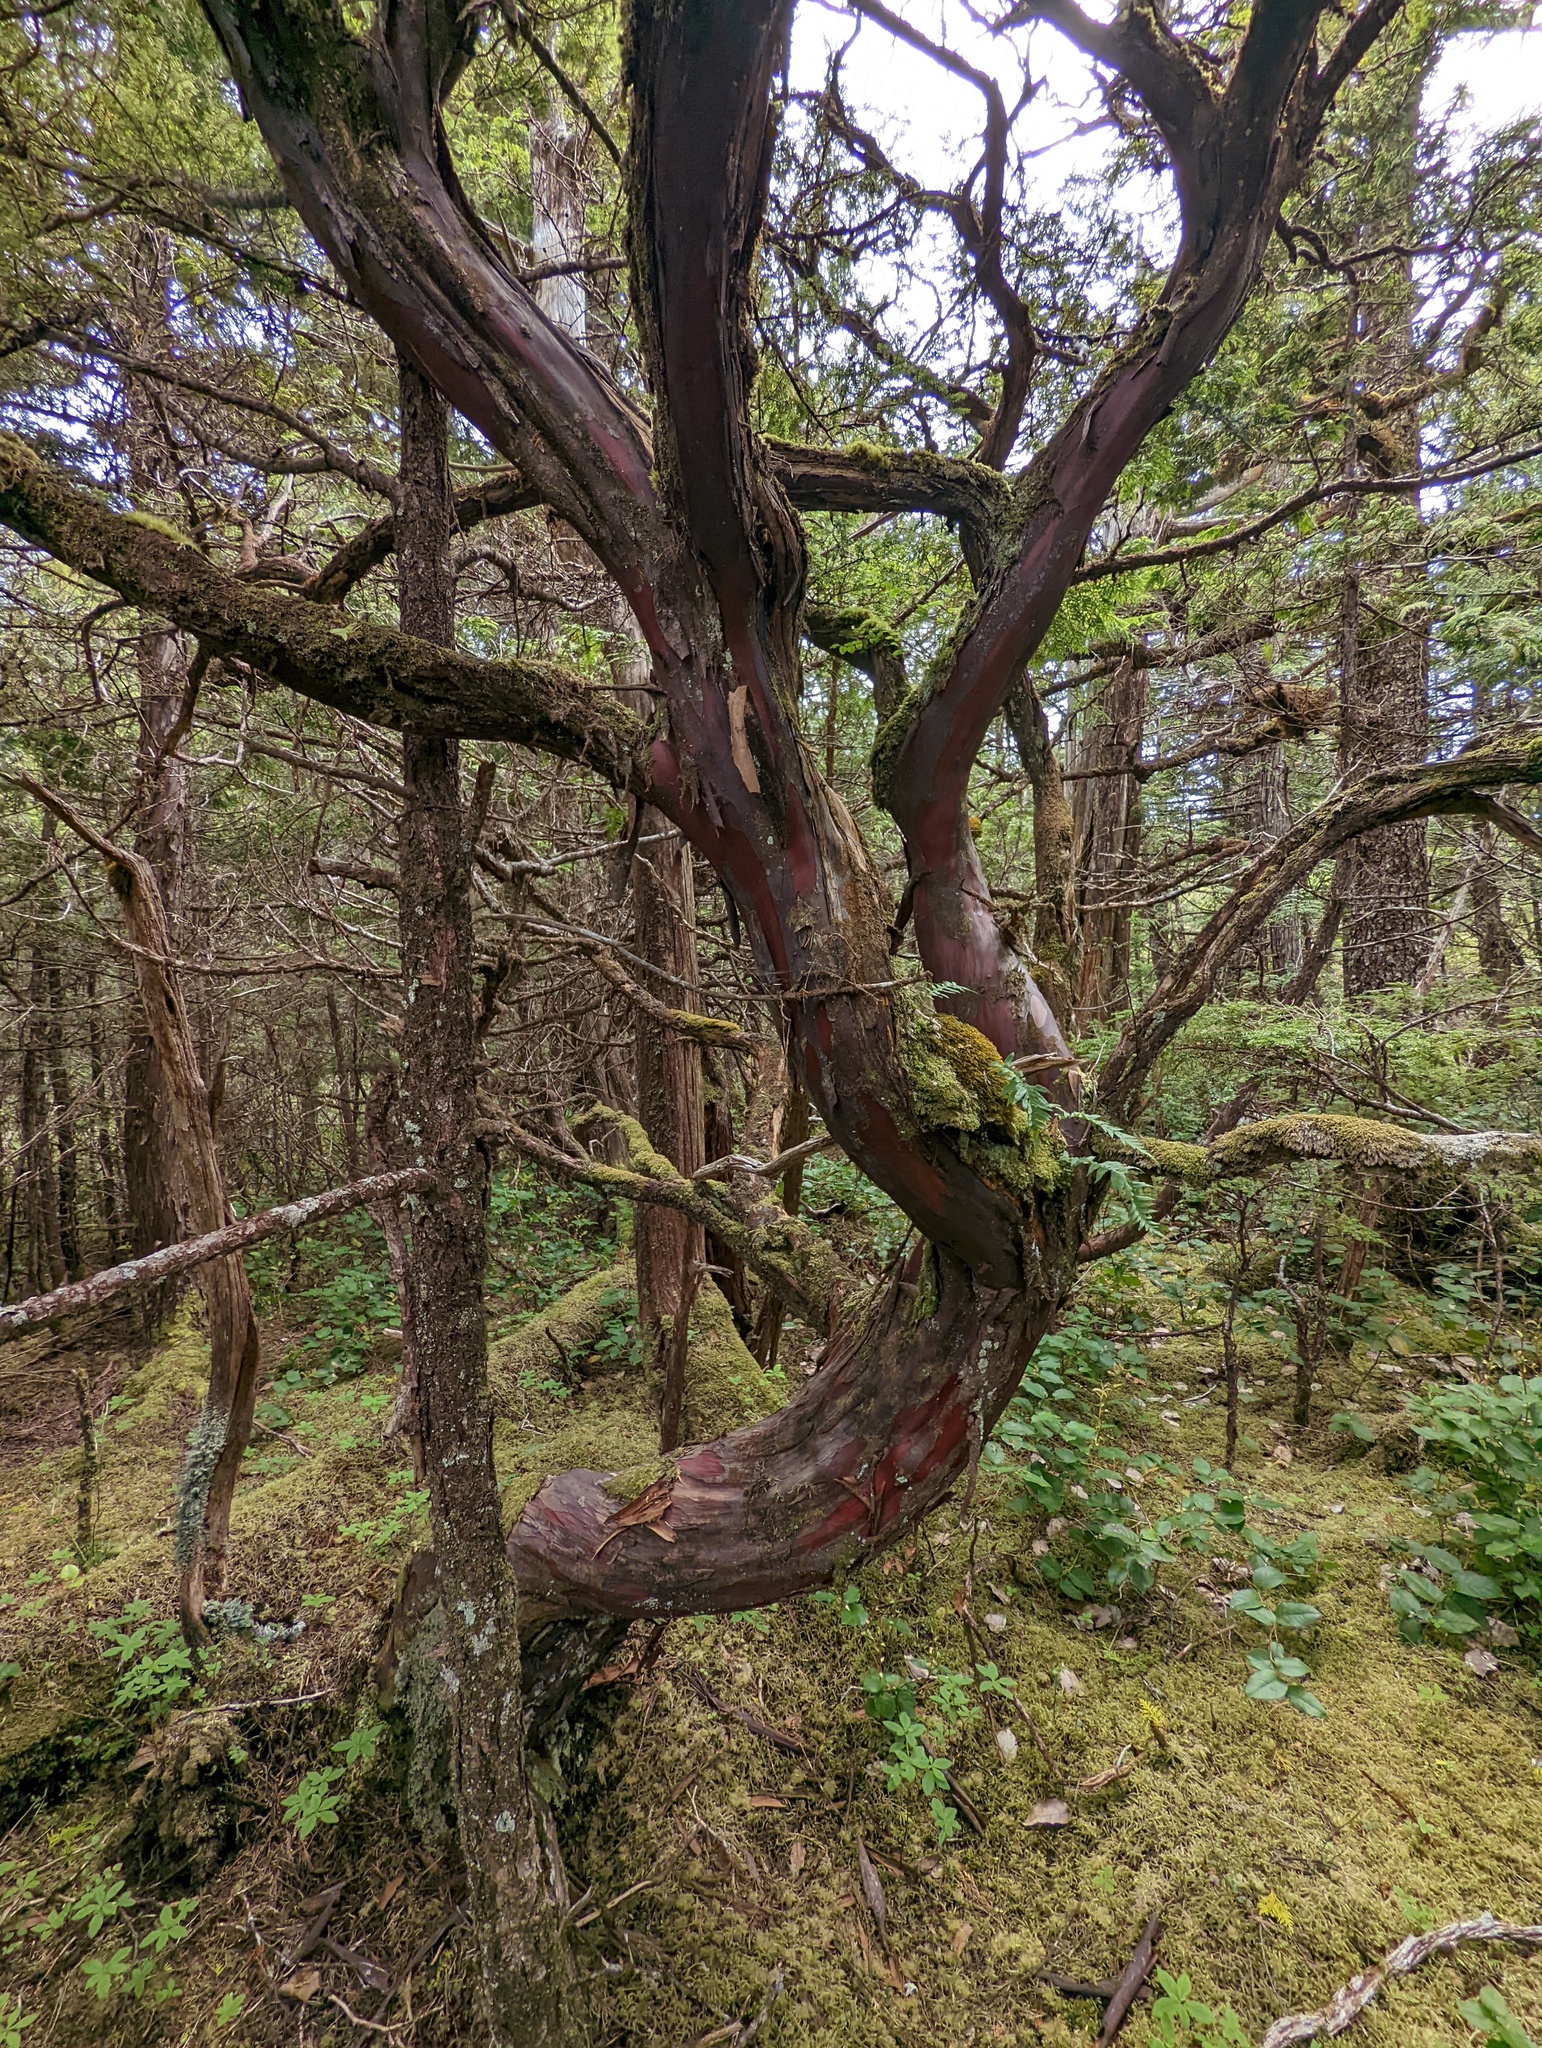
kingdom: Plantae
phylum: Tracheophyta
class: Pinopsida
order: Pinales
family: Taxaceae
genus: Taxus
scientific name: Taxus brevifolia
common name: Pacific yew
